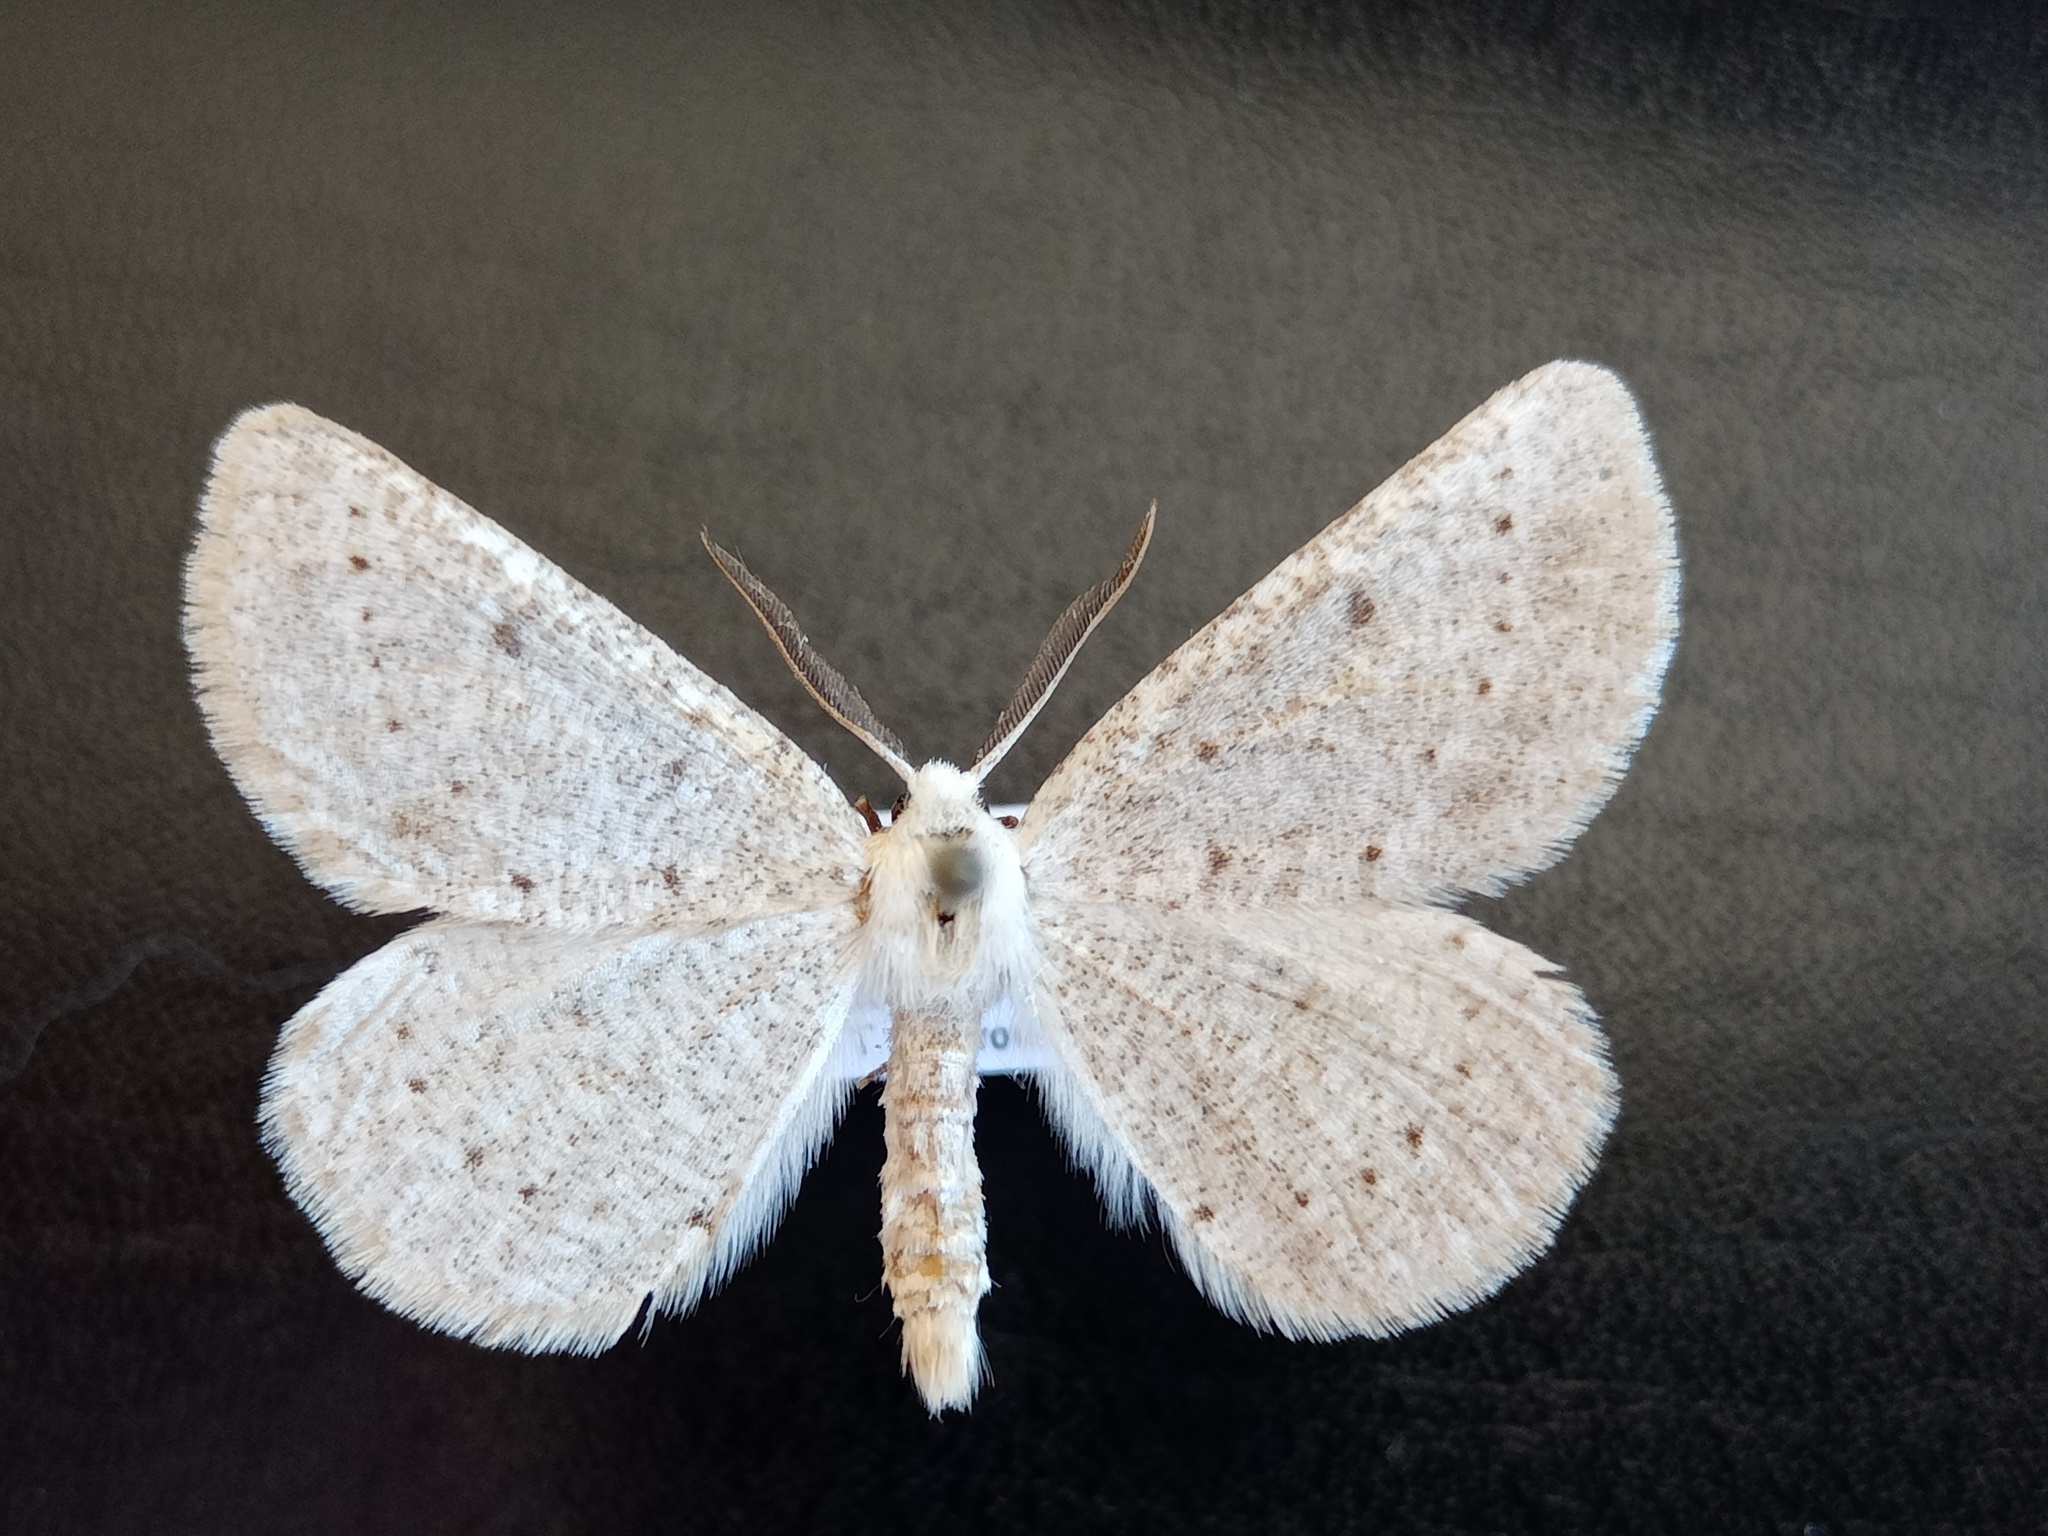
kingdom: Animalia
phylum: Arthropoda
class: Insecta
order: Lepidoptera
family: Geometridae
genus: Dyscia
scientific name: Dyscia raunaria
